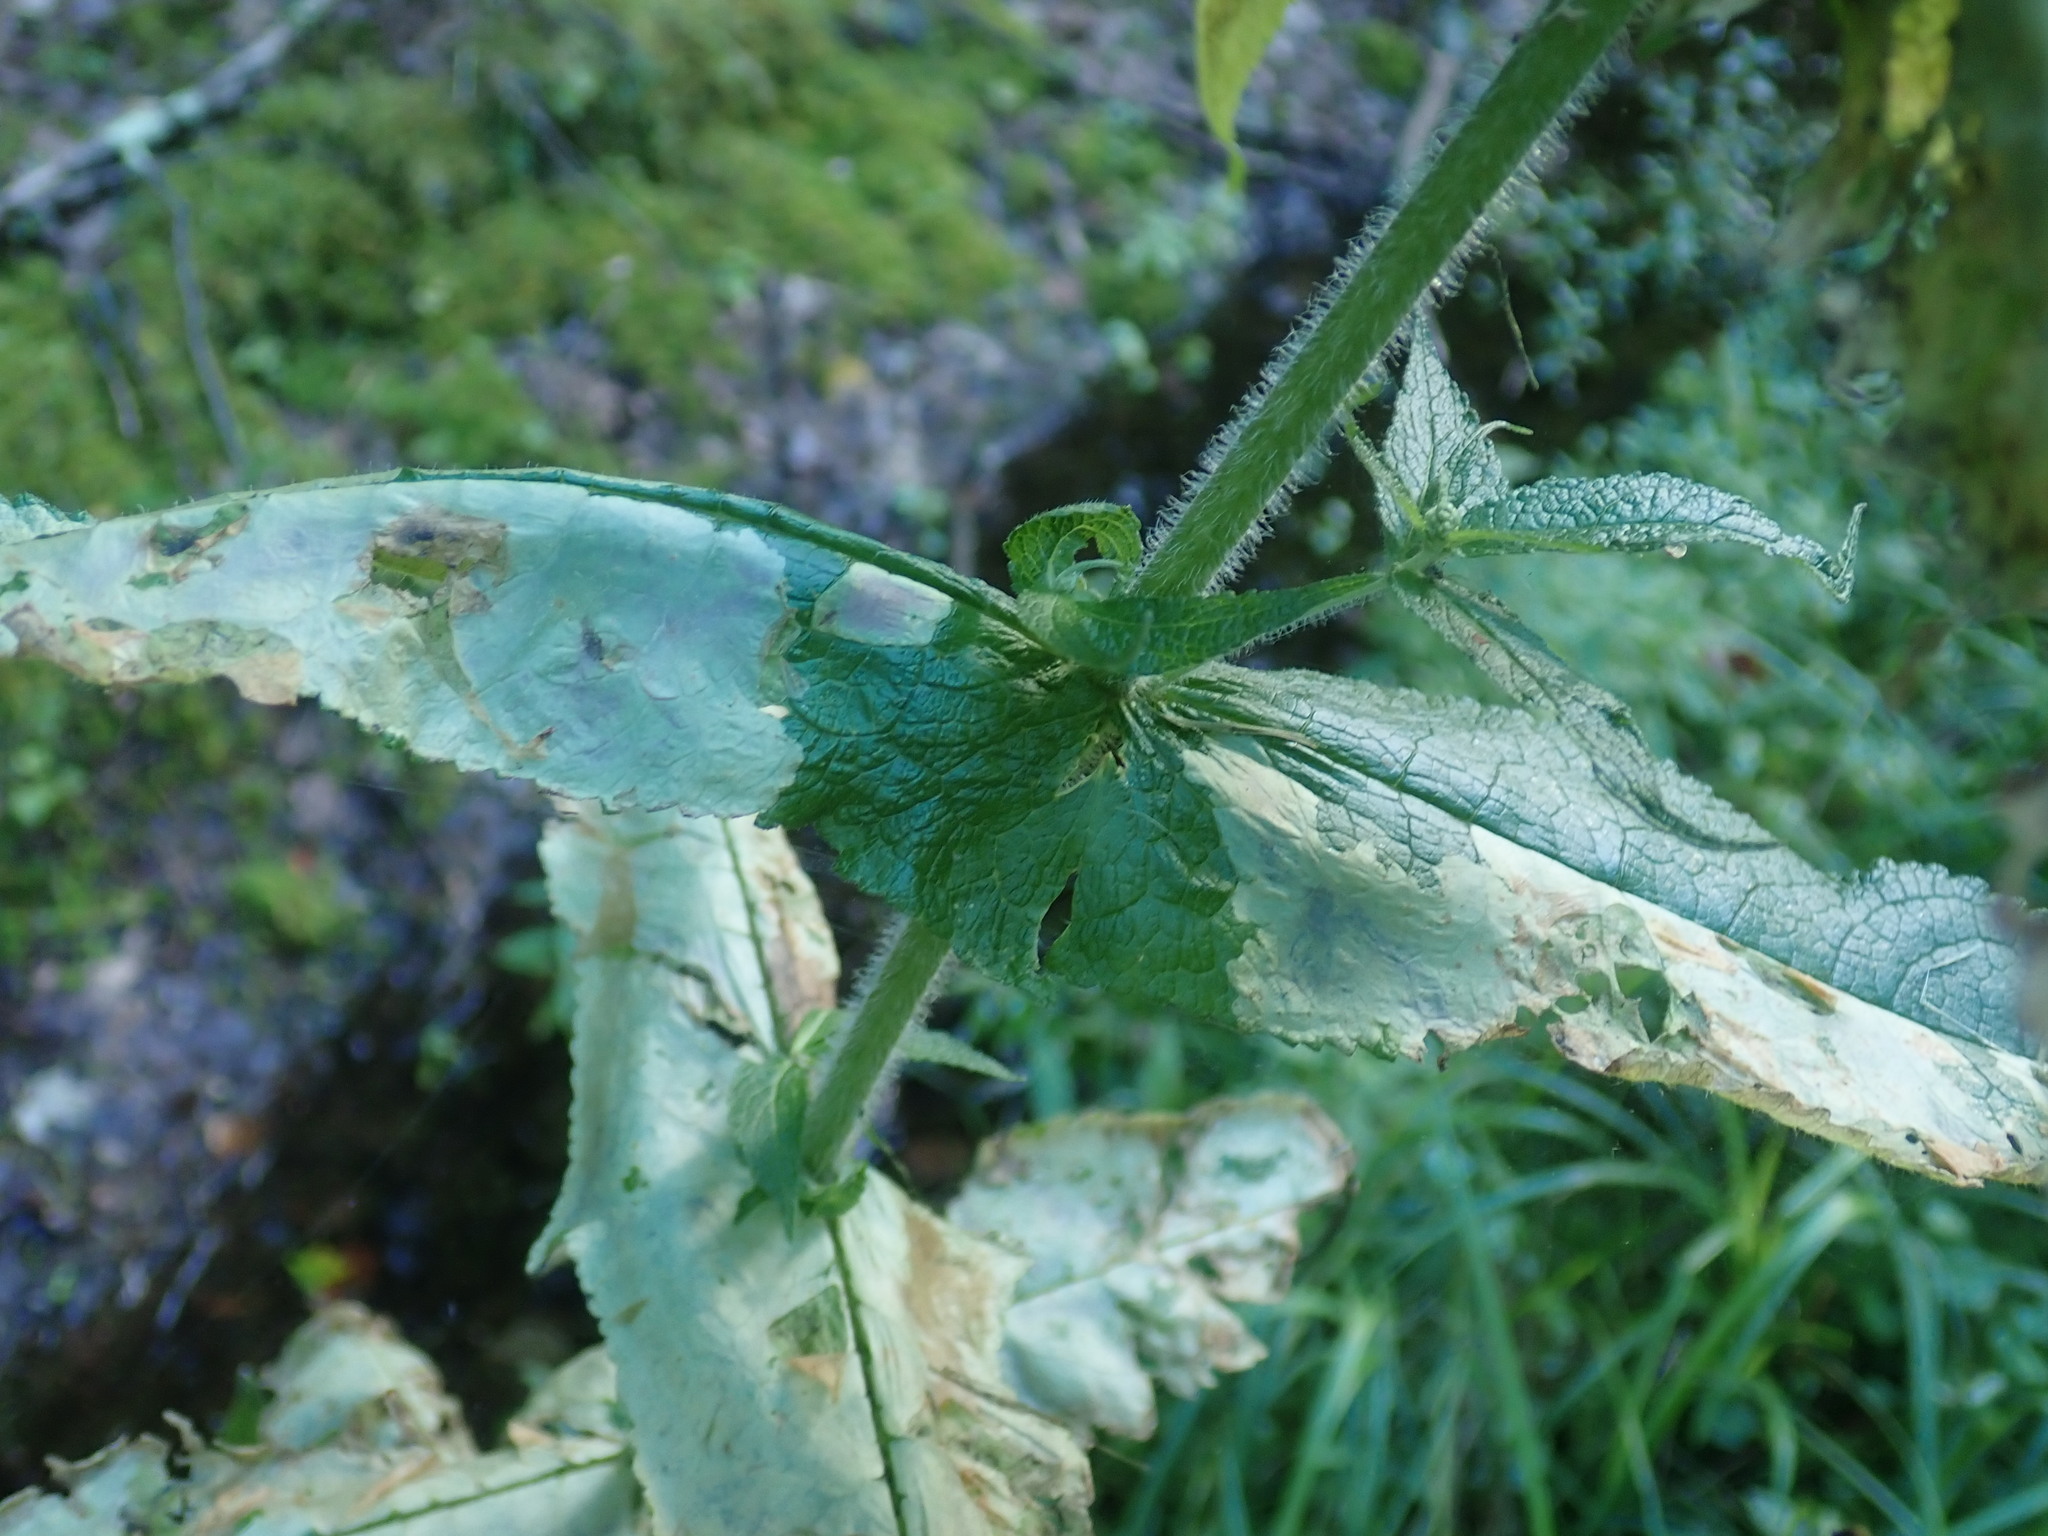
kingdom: Plantae
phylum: Tracheophyta
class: Magnoliopsida
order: Asterales
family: Asteraceae
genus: Eupatorium
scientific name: Eupatorium perfoliatum
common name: Boneset
